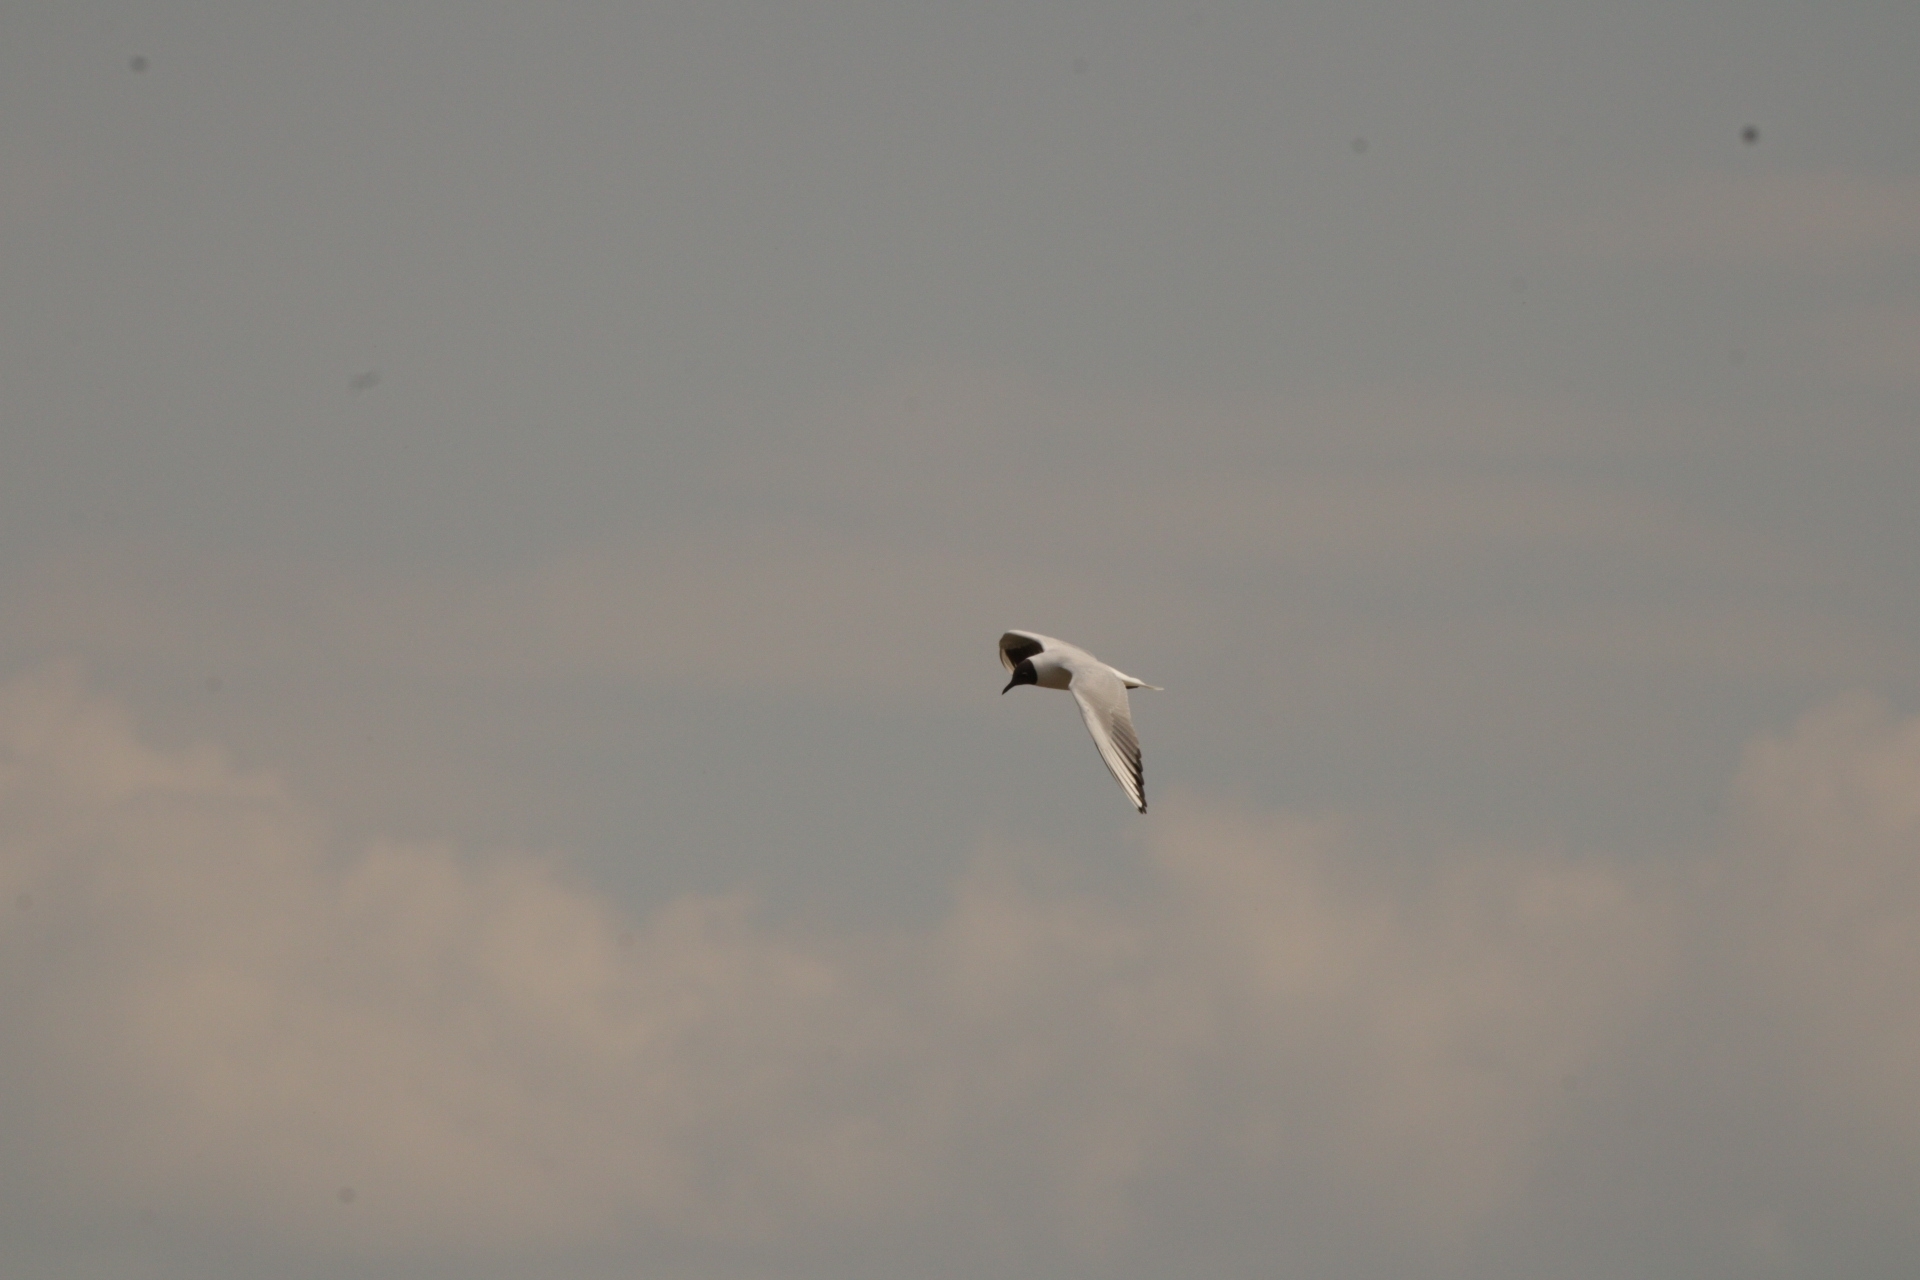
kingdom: Animalia
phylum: Chordata
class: Aves
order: Charadriiformes
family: Laridae
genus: Chroicocephalus
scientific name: Chroicocephalus ridibundus
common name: Black-headed gull
